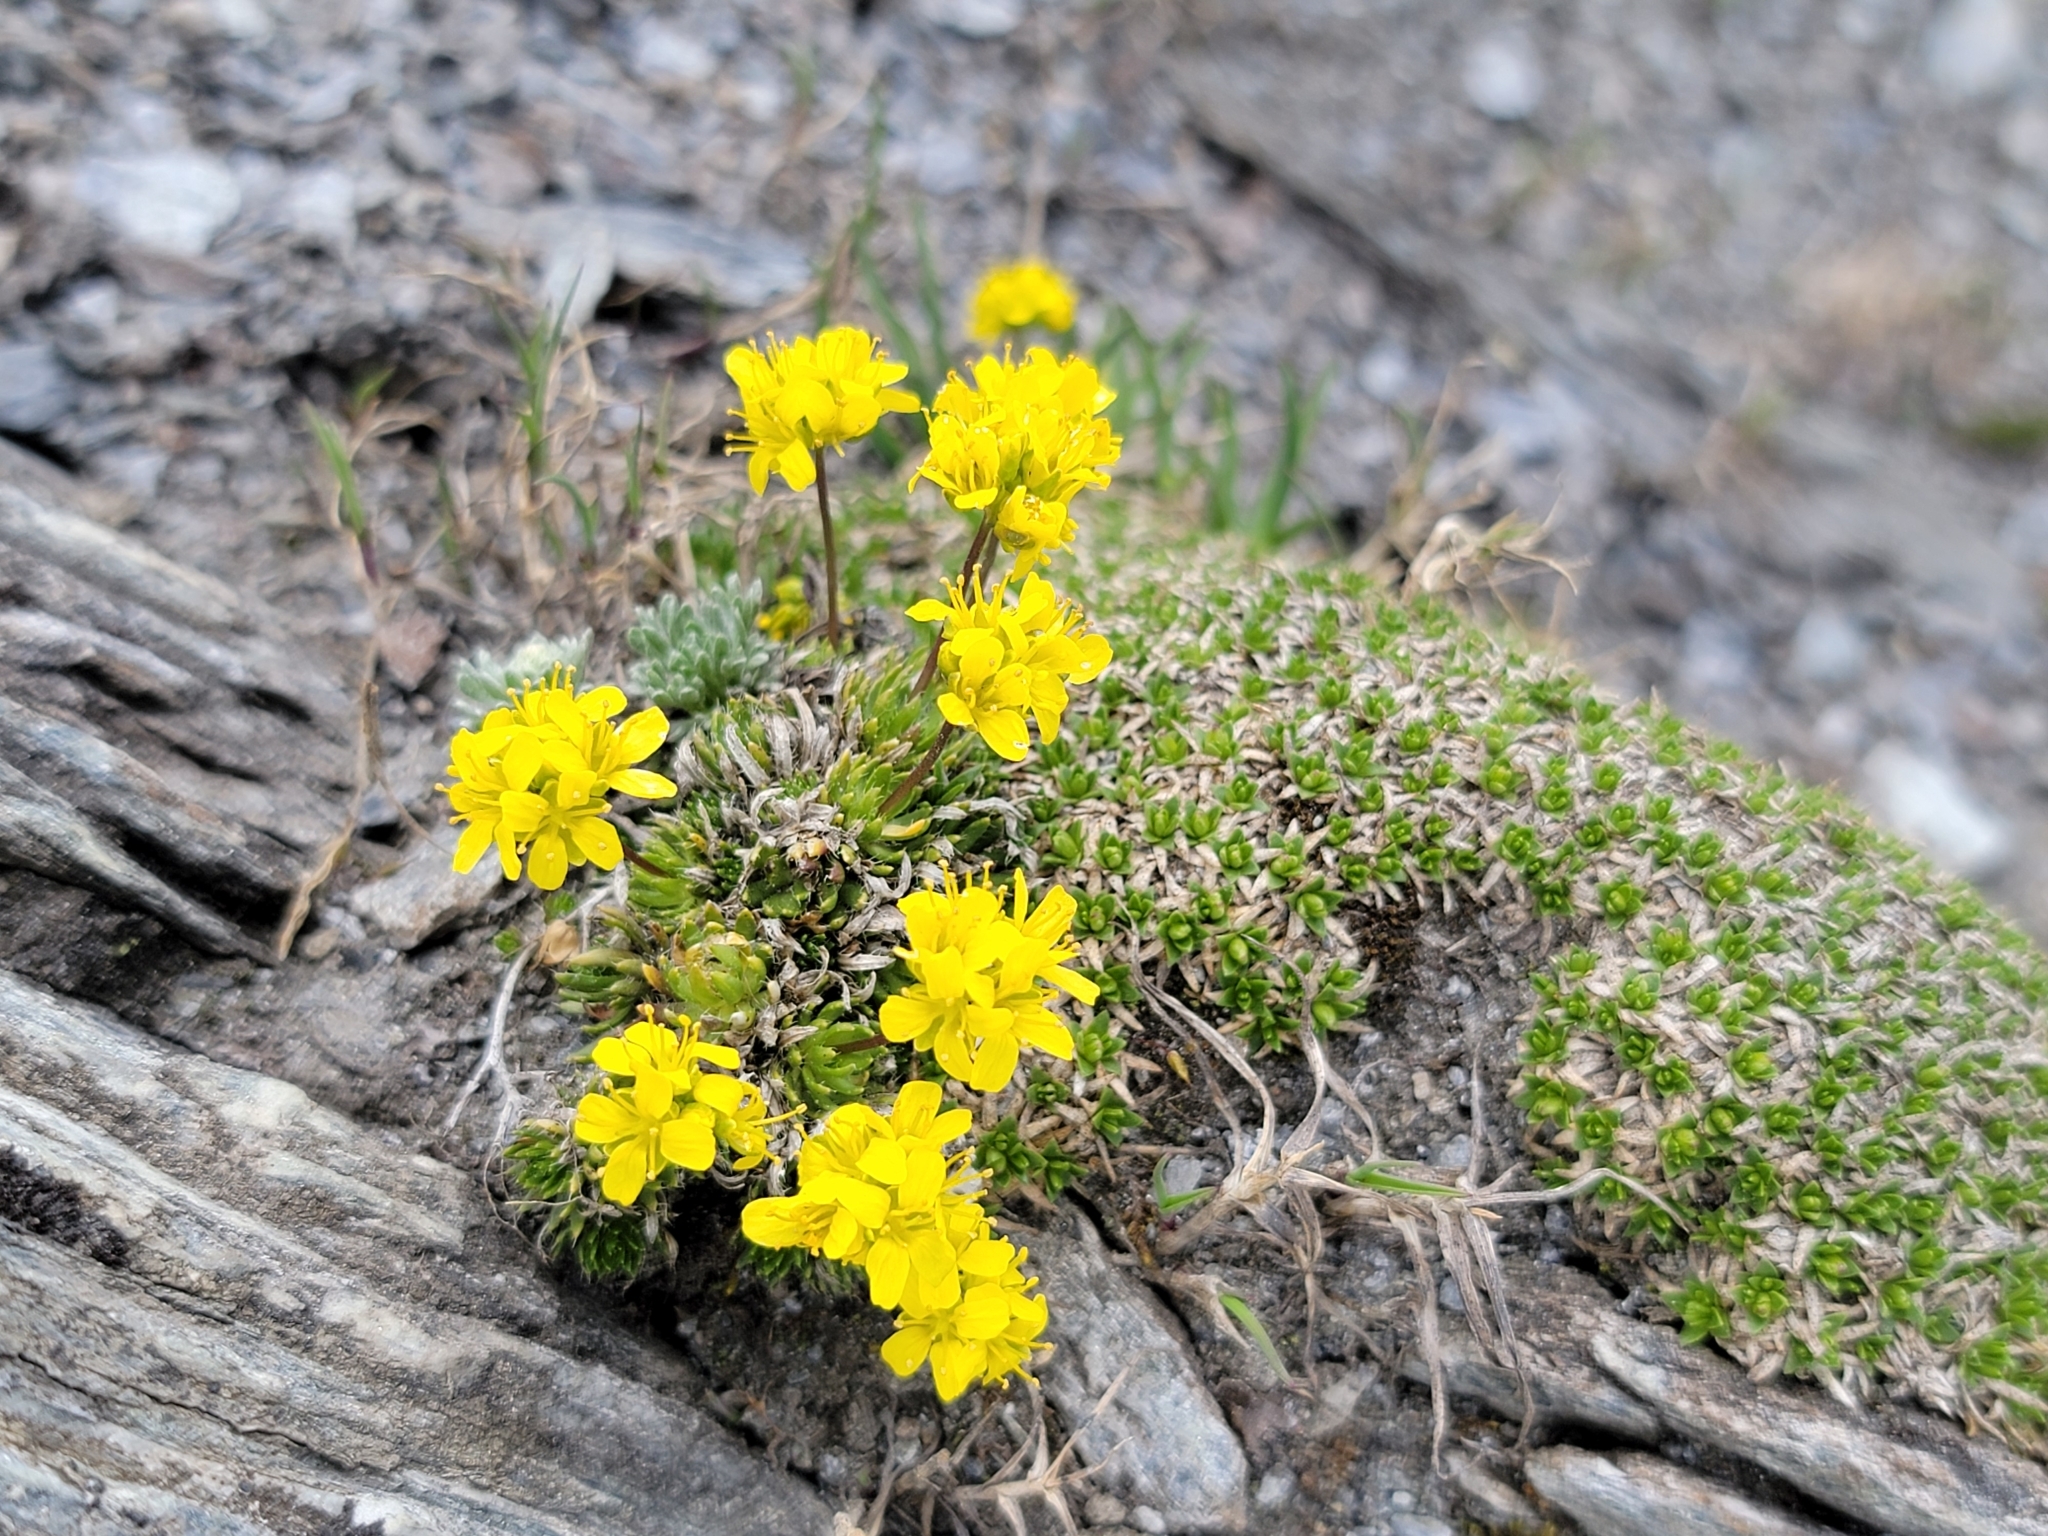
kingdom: Plantae
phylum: Tracheophyta
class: Magnoliopsida
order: Brassicales
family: Brassicaceae
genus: Draba
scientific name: Draba aizoides
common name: Yellow whitlowgrass
